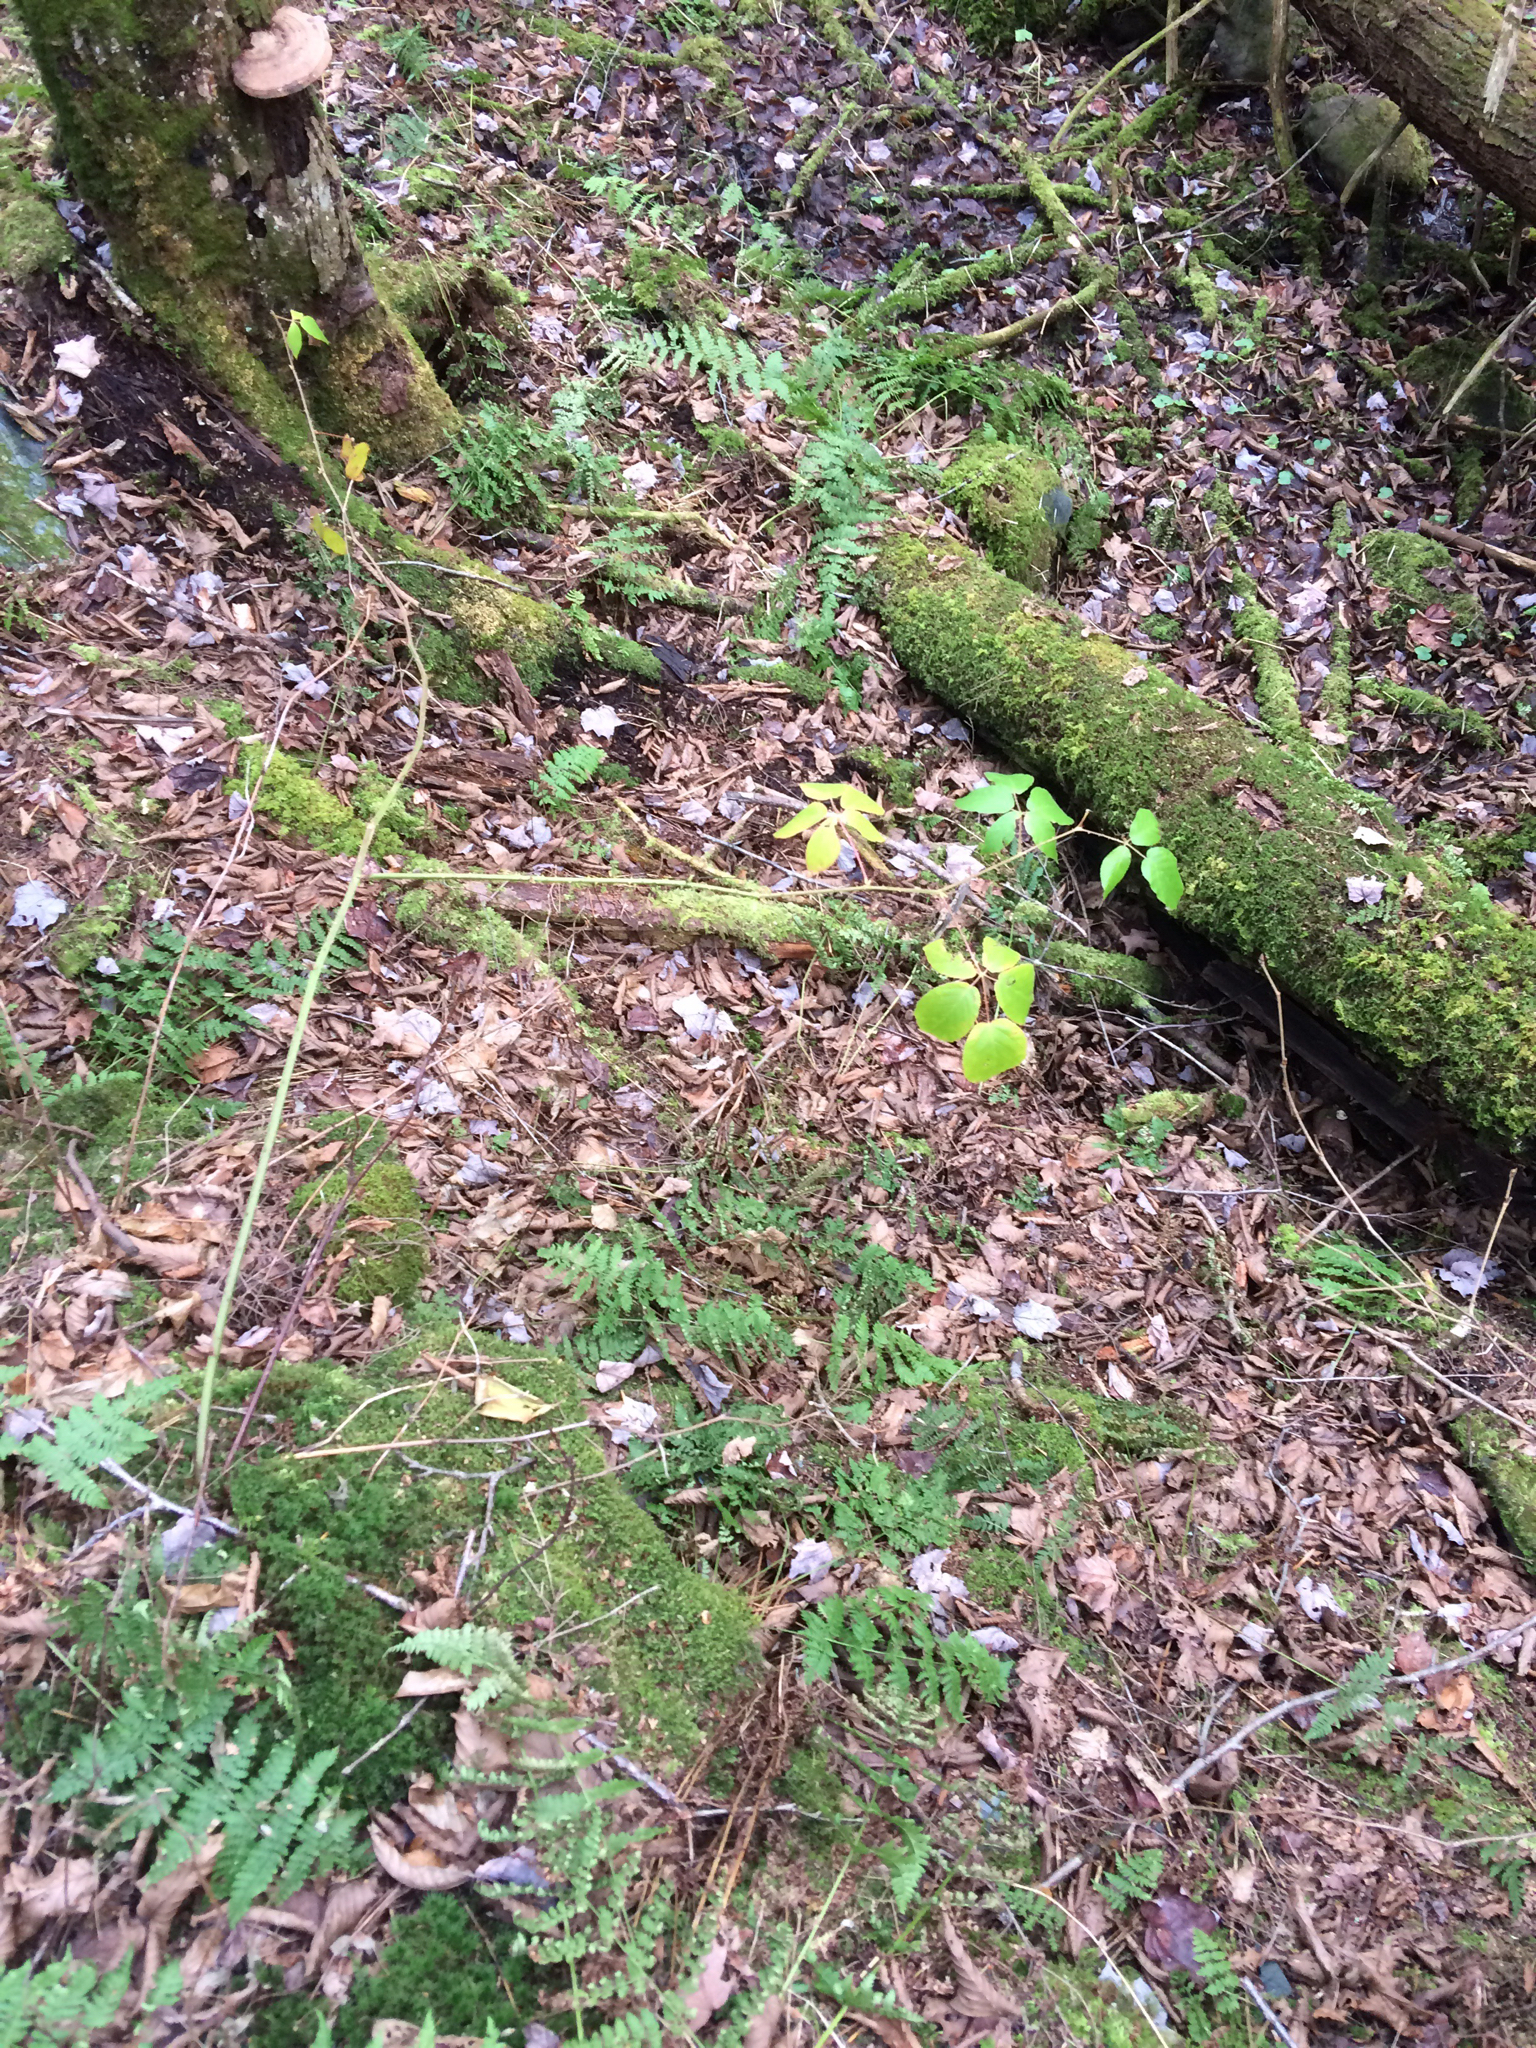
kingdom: Plantae
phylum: Tracheophyta
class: Magnoliopsida
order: Rosales
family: Rosaceae
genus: Rosa
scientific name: Rosa multiflora
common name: Multiflora rose
